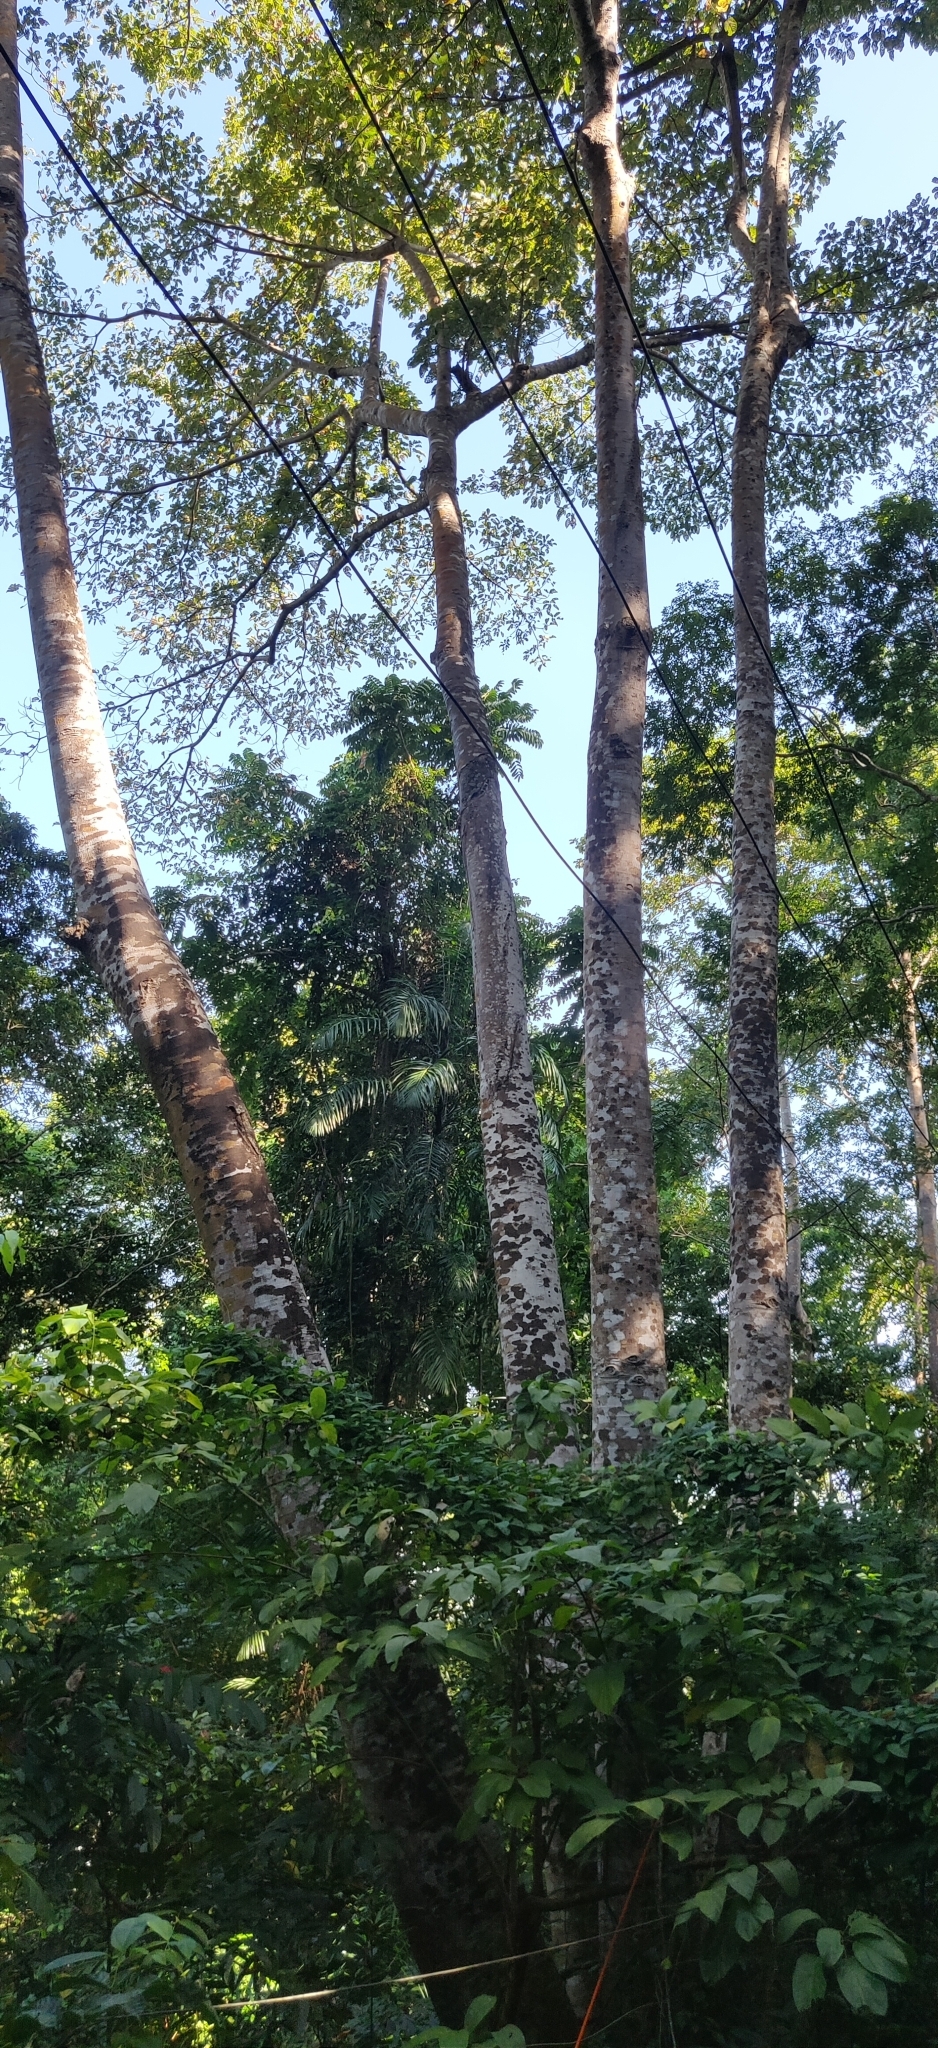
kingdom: Plantae
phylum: Tracheophyta
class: Magnoliopsida
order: Cucurbitales
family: Tetramelaceae
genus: Tetrameles
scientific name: Tetrameles nudiflora
